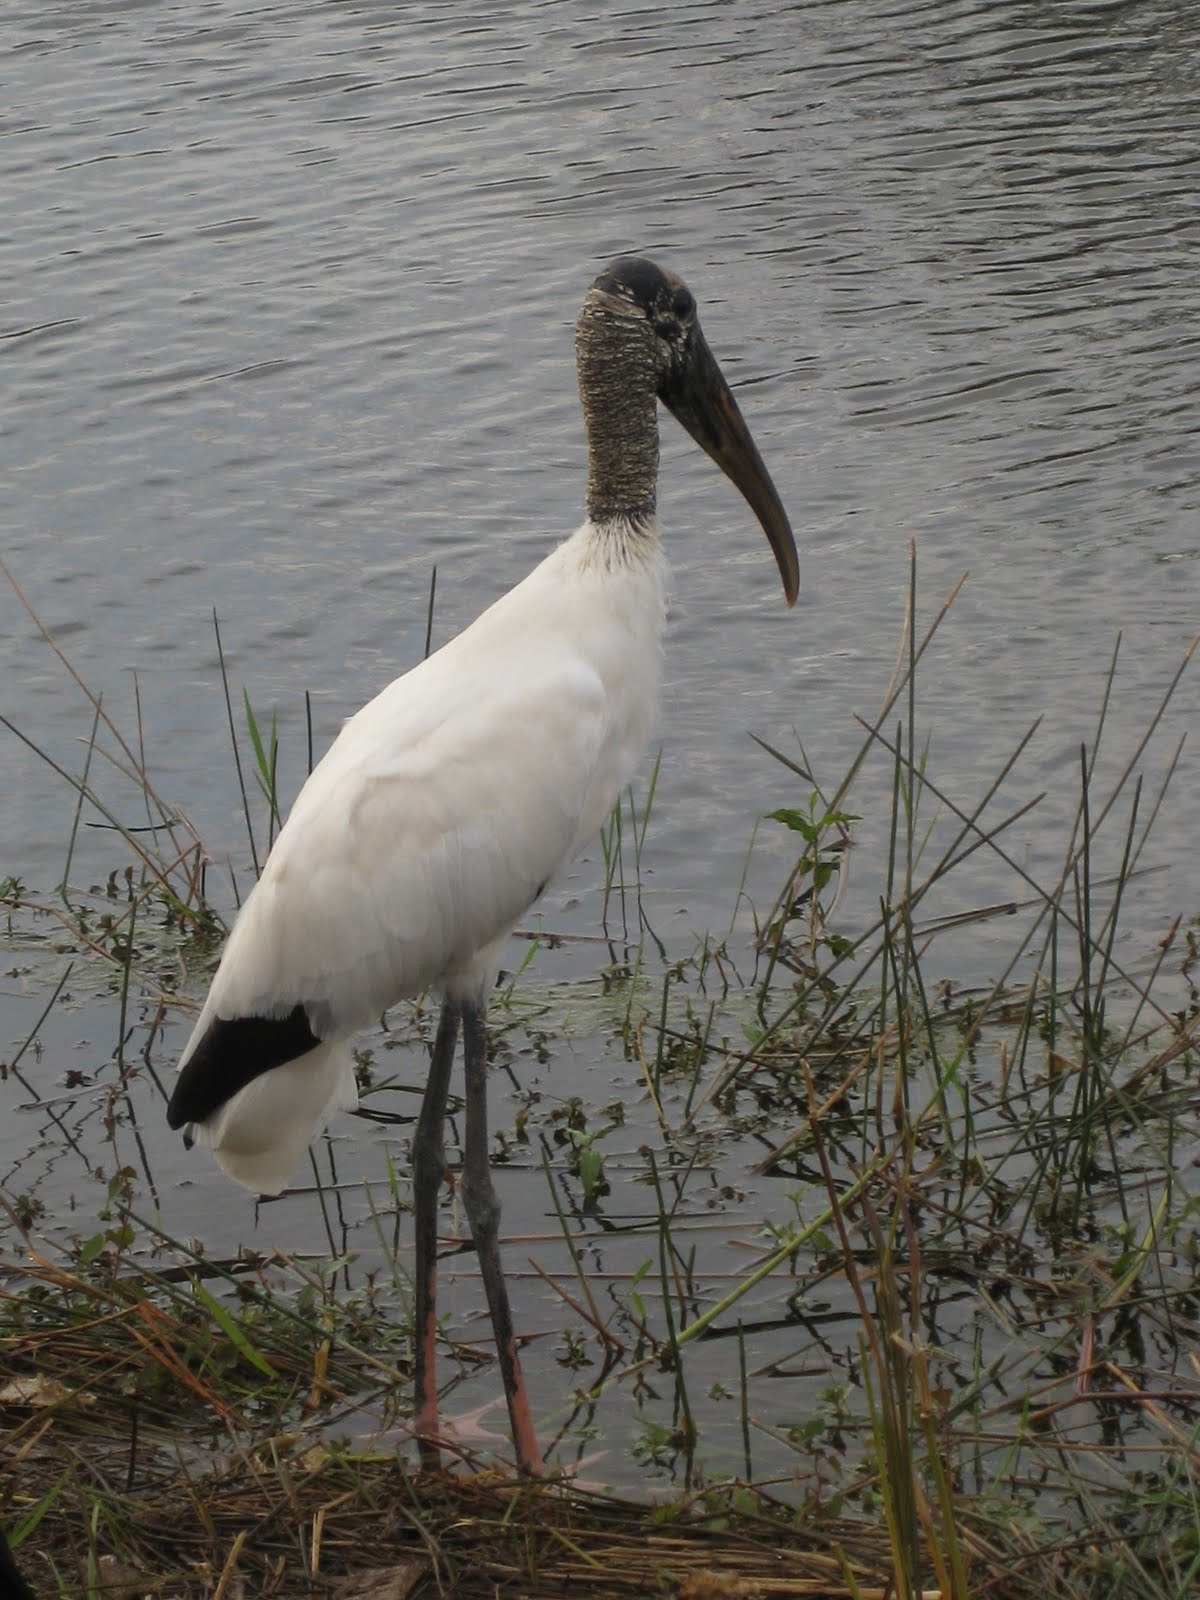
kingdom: Animalia
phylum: Chordata
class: Aves
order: Ciconiiformes
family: Ciconiidae
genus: Mycteria
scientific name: Mycteria americana
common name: Wood stork
